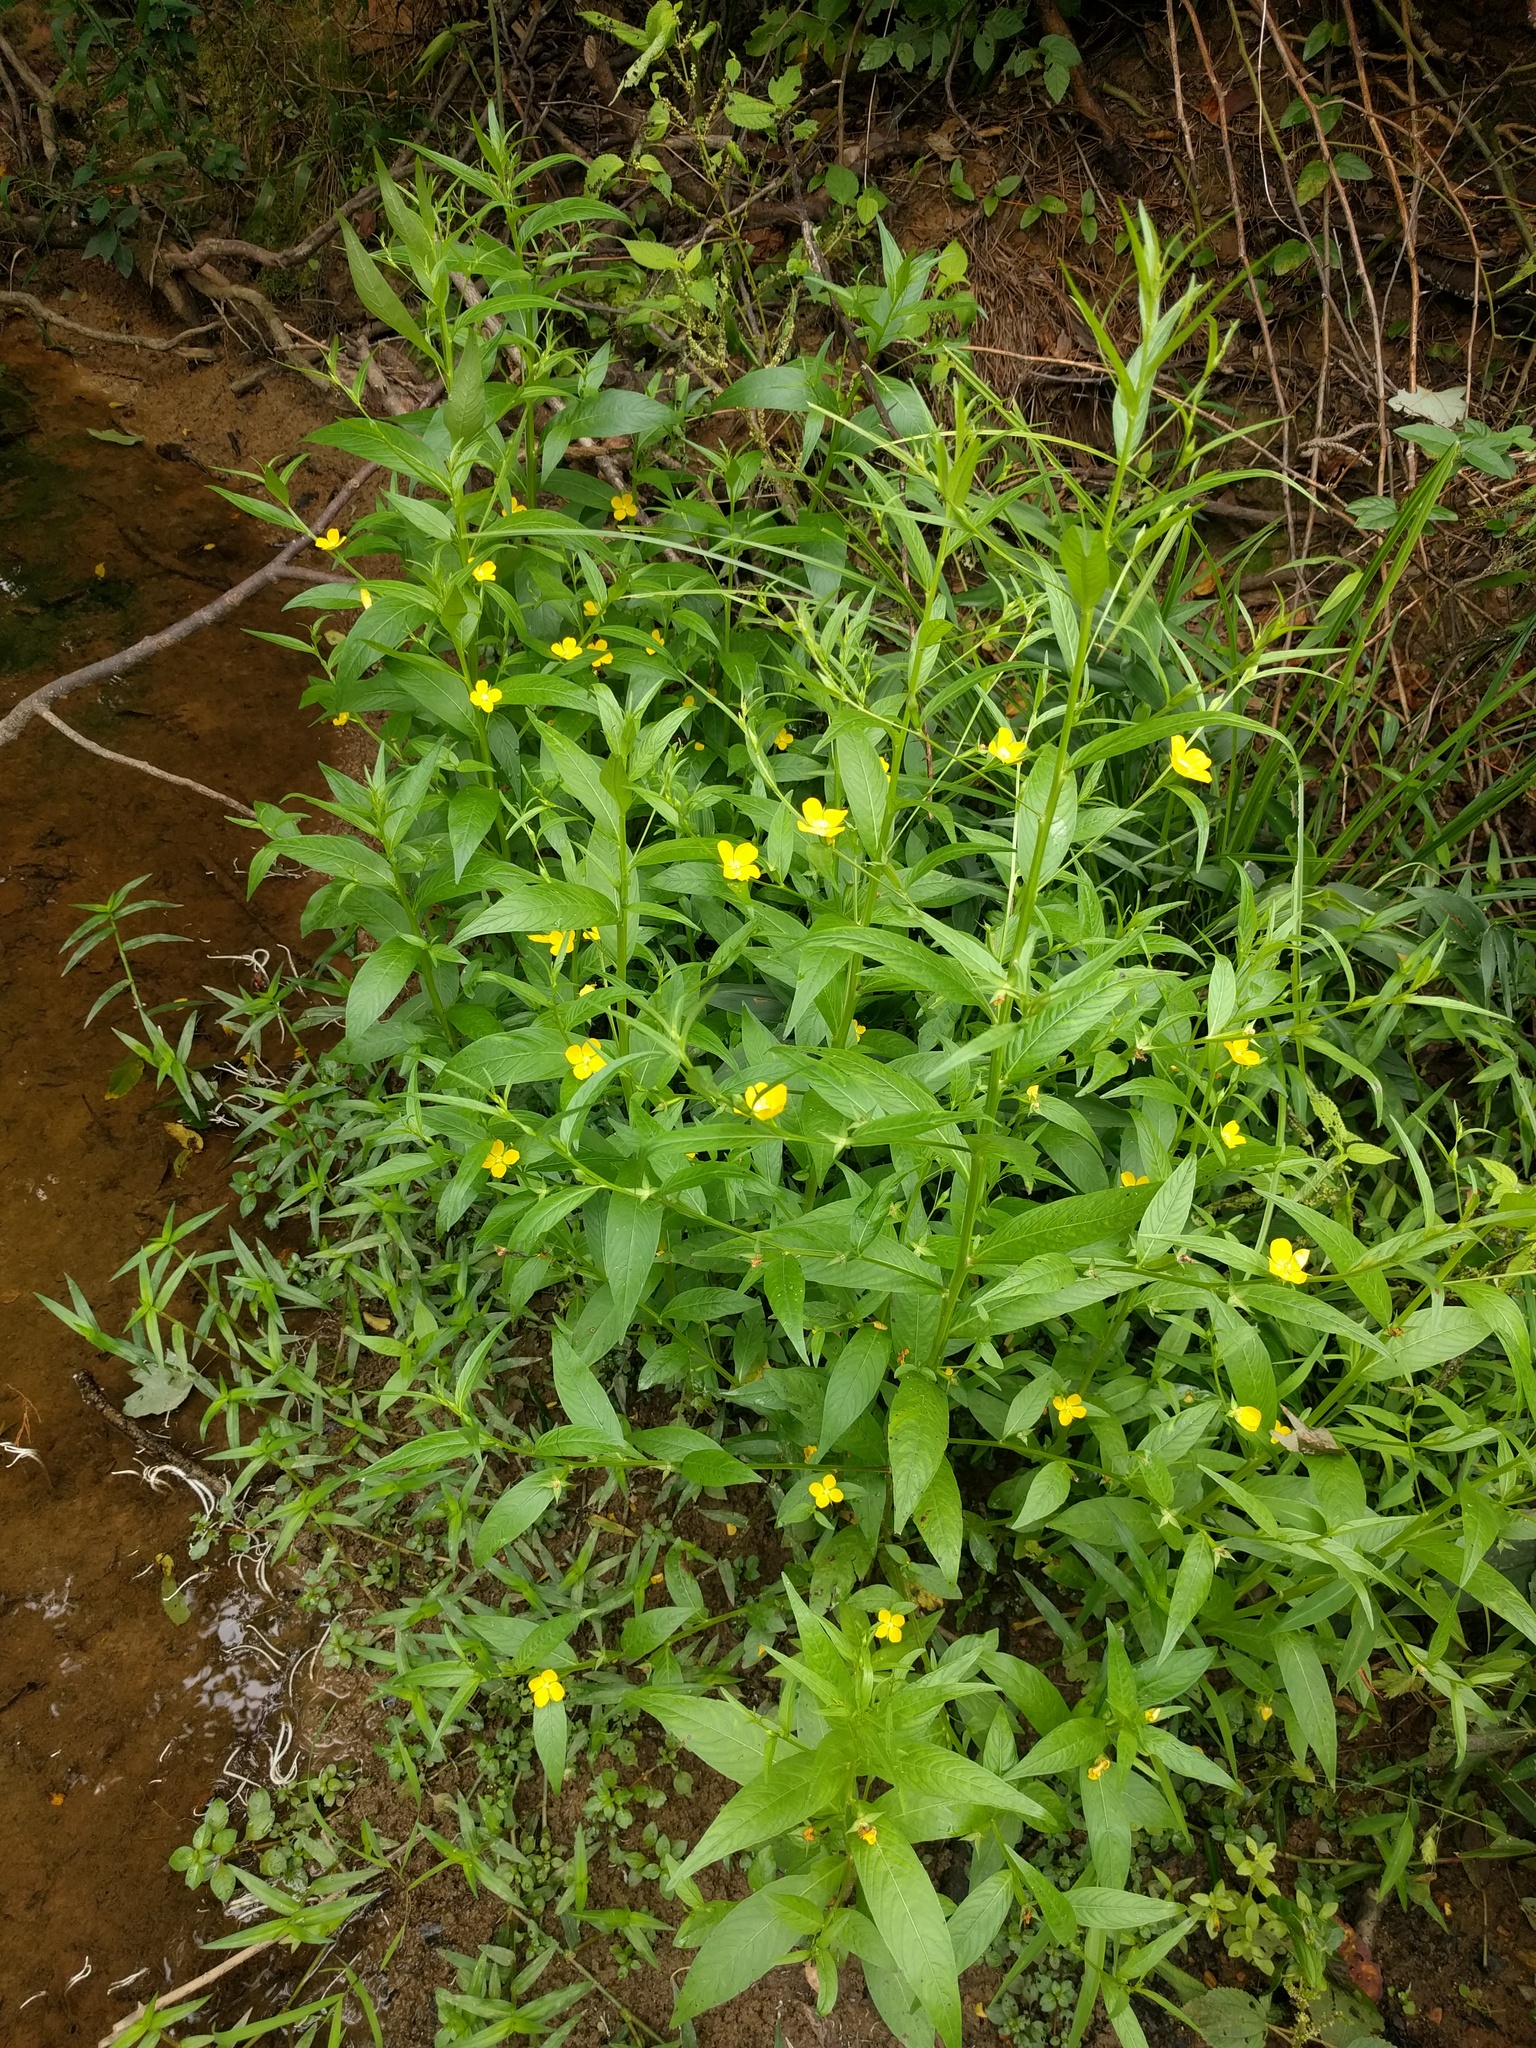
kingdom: Plantae
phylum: Tracheophyta
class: Magnoliopsida
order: Myrtales
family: Onagraceae
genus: Ludwigia
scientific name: Ludwigia decurrens
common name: Winged water-primrose
